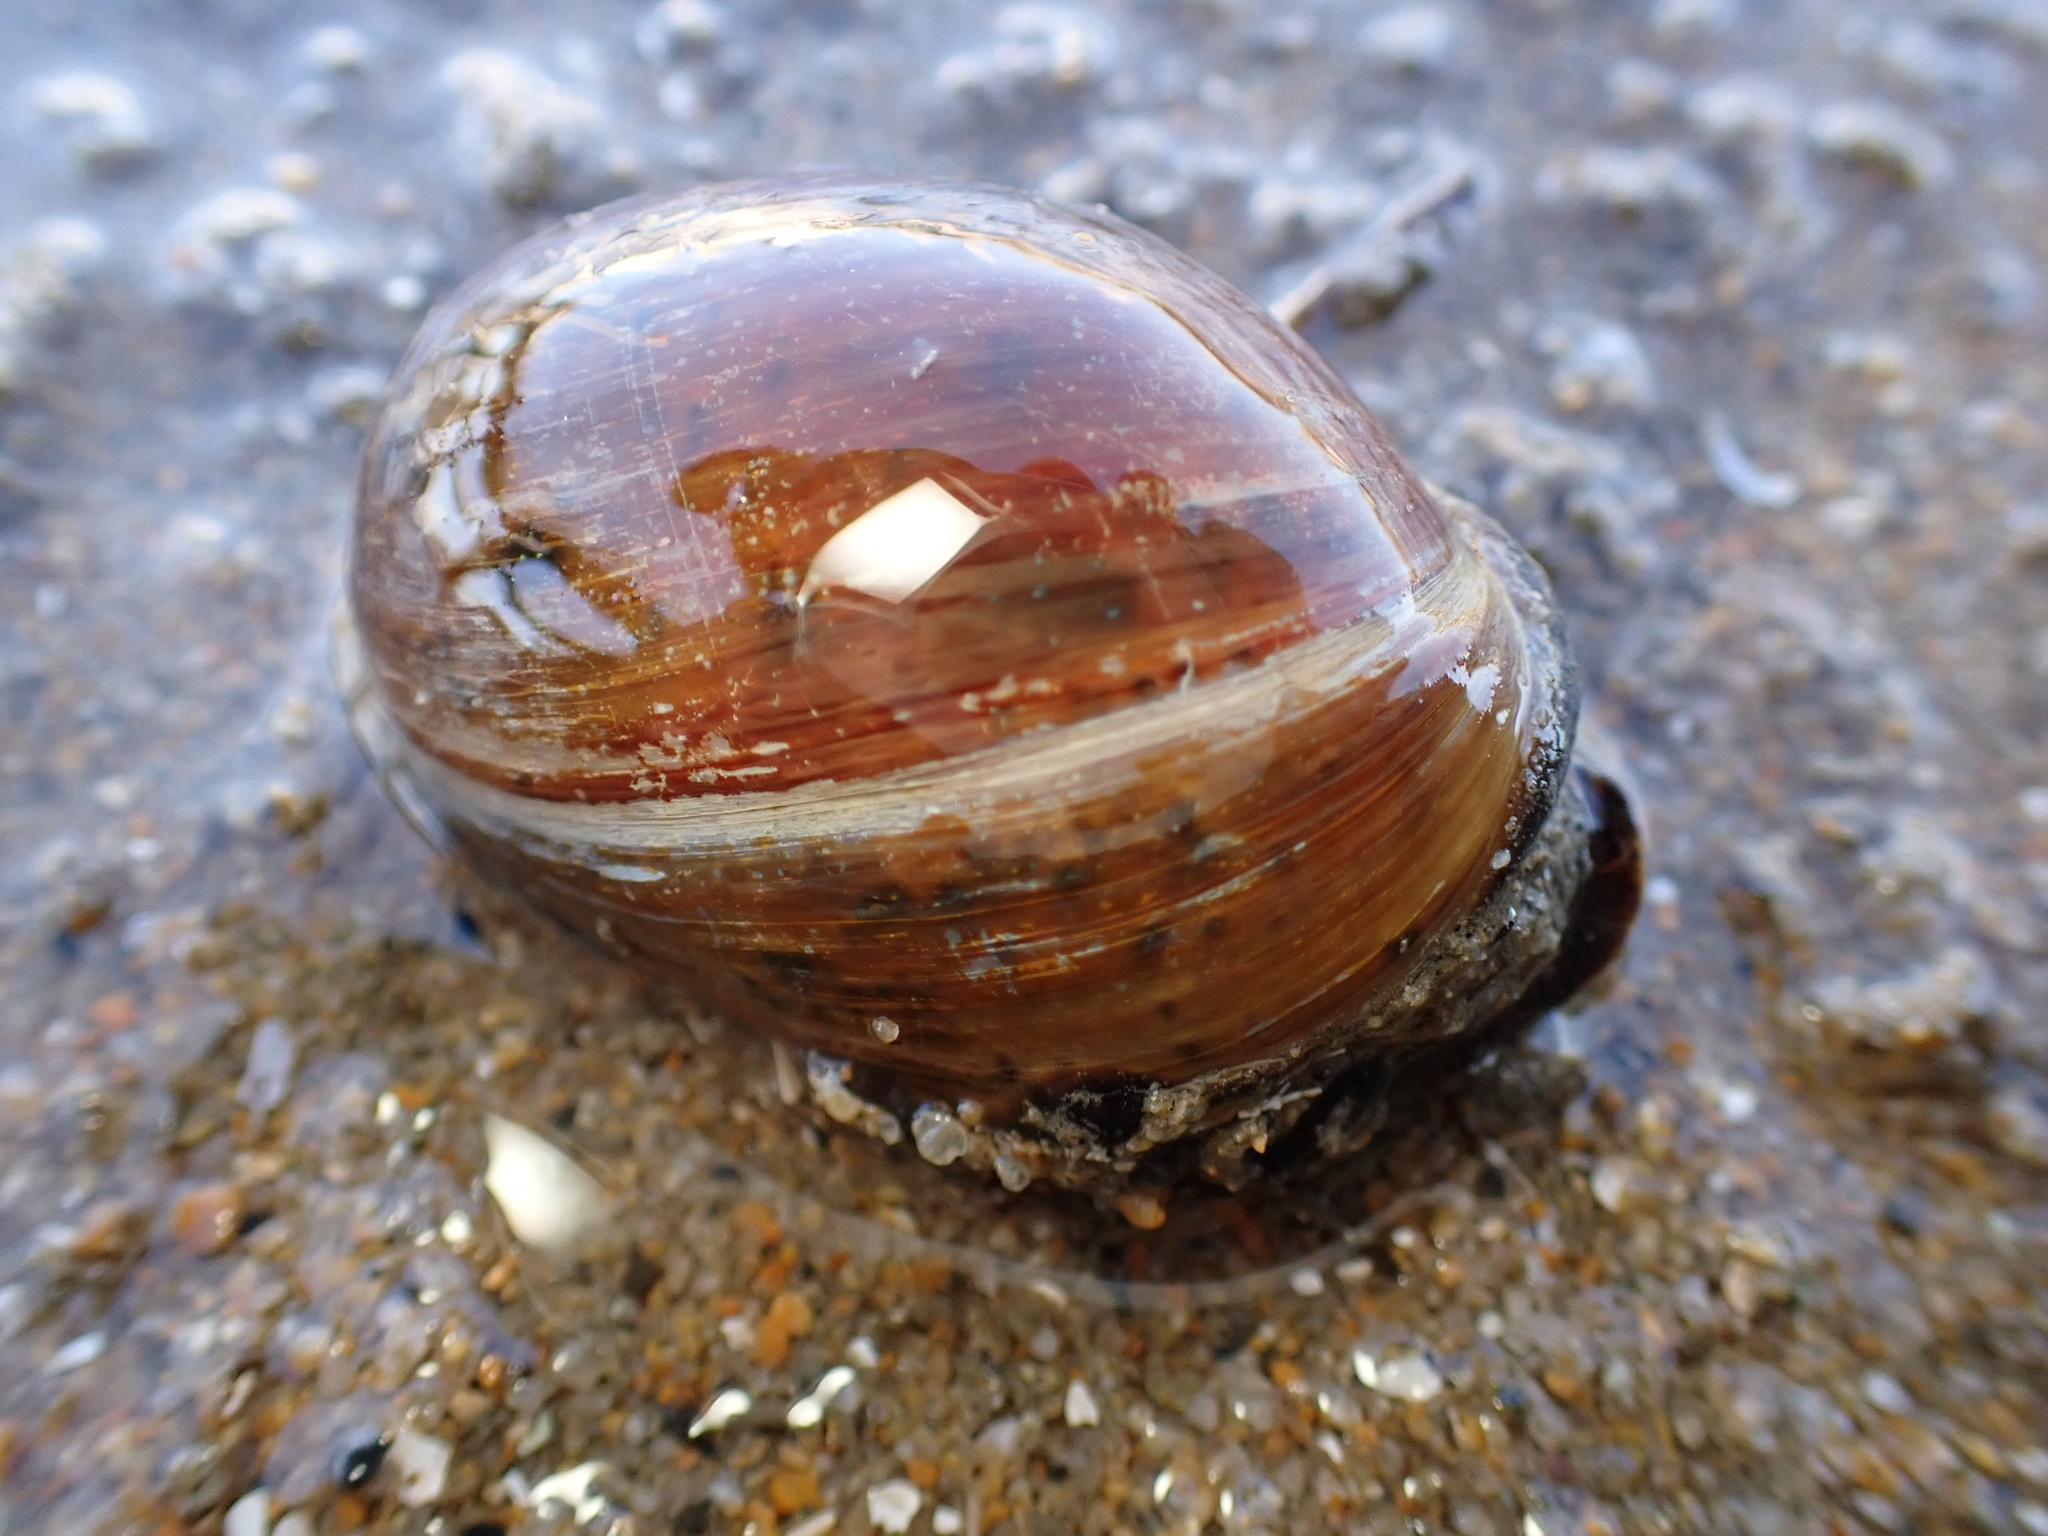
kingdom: Animalia
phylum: Mollusca
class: Gastropoda
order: Cephalaspidea
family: Bullidae
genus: Bulla
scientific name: Bulla gouldiana
